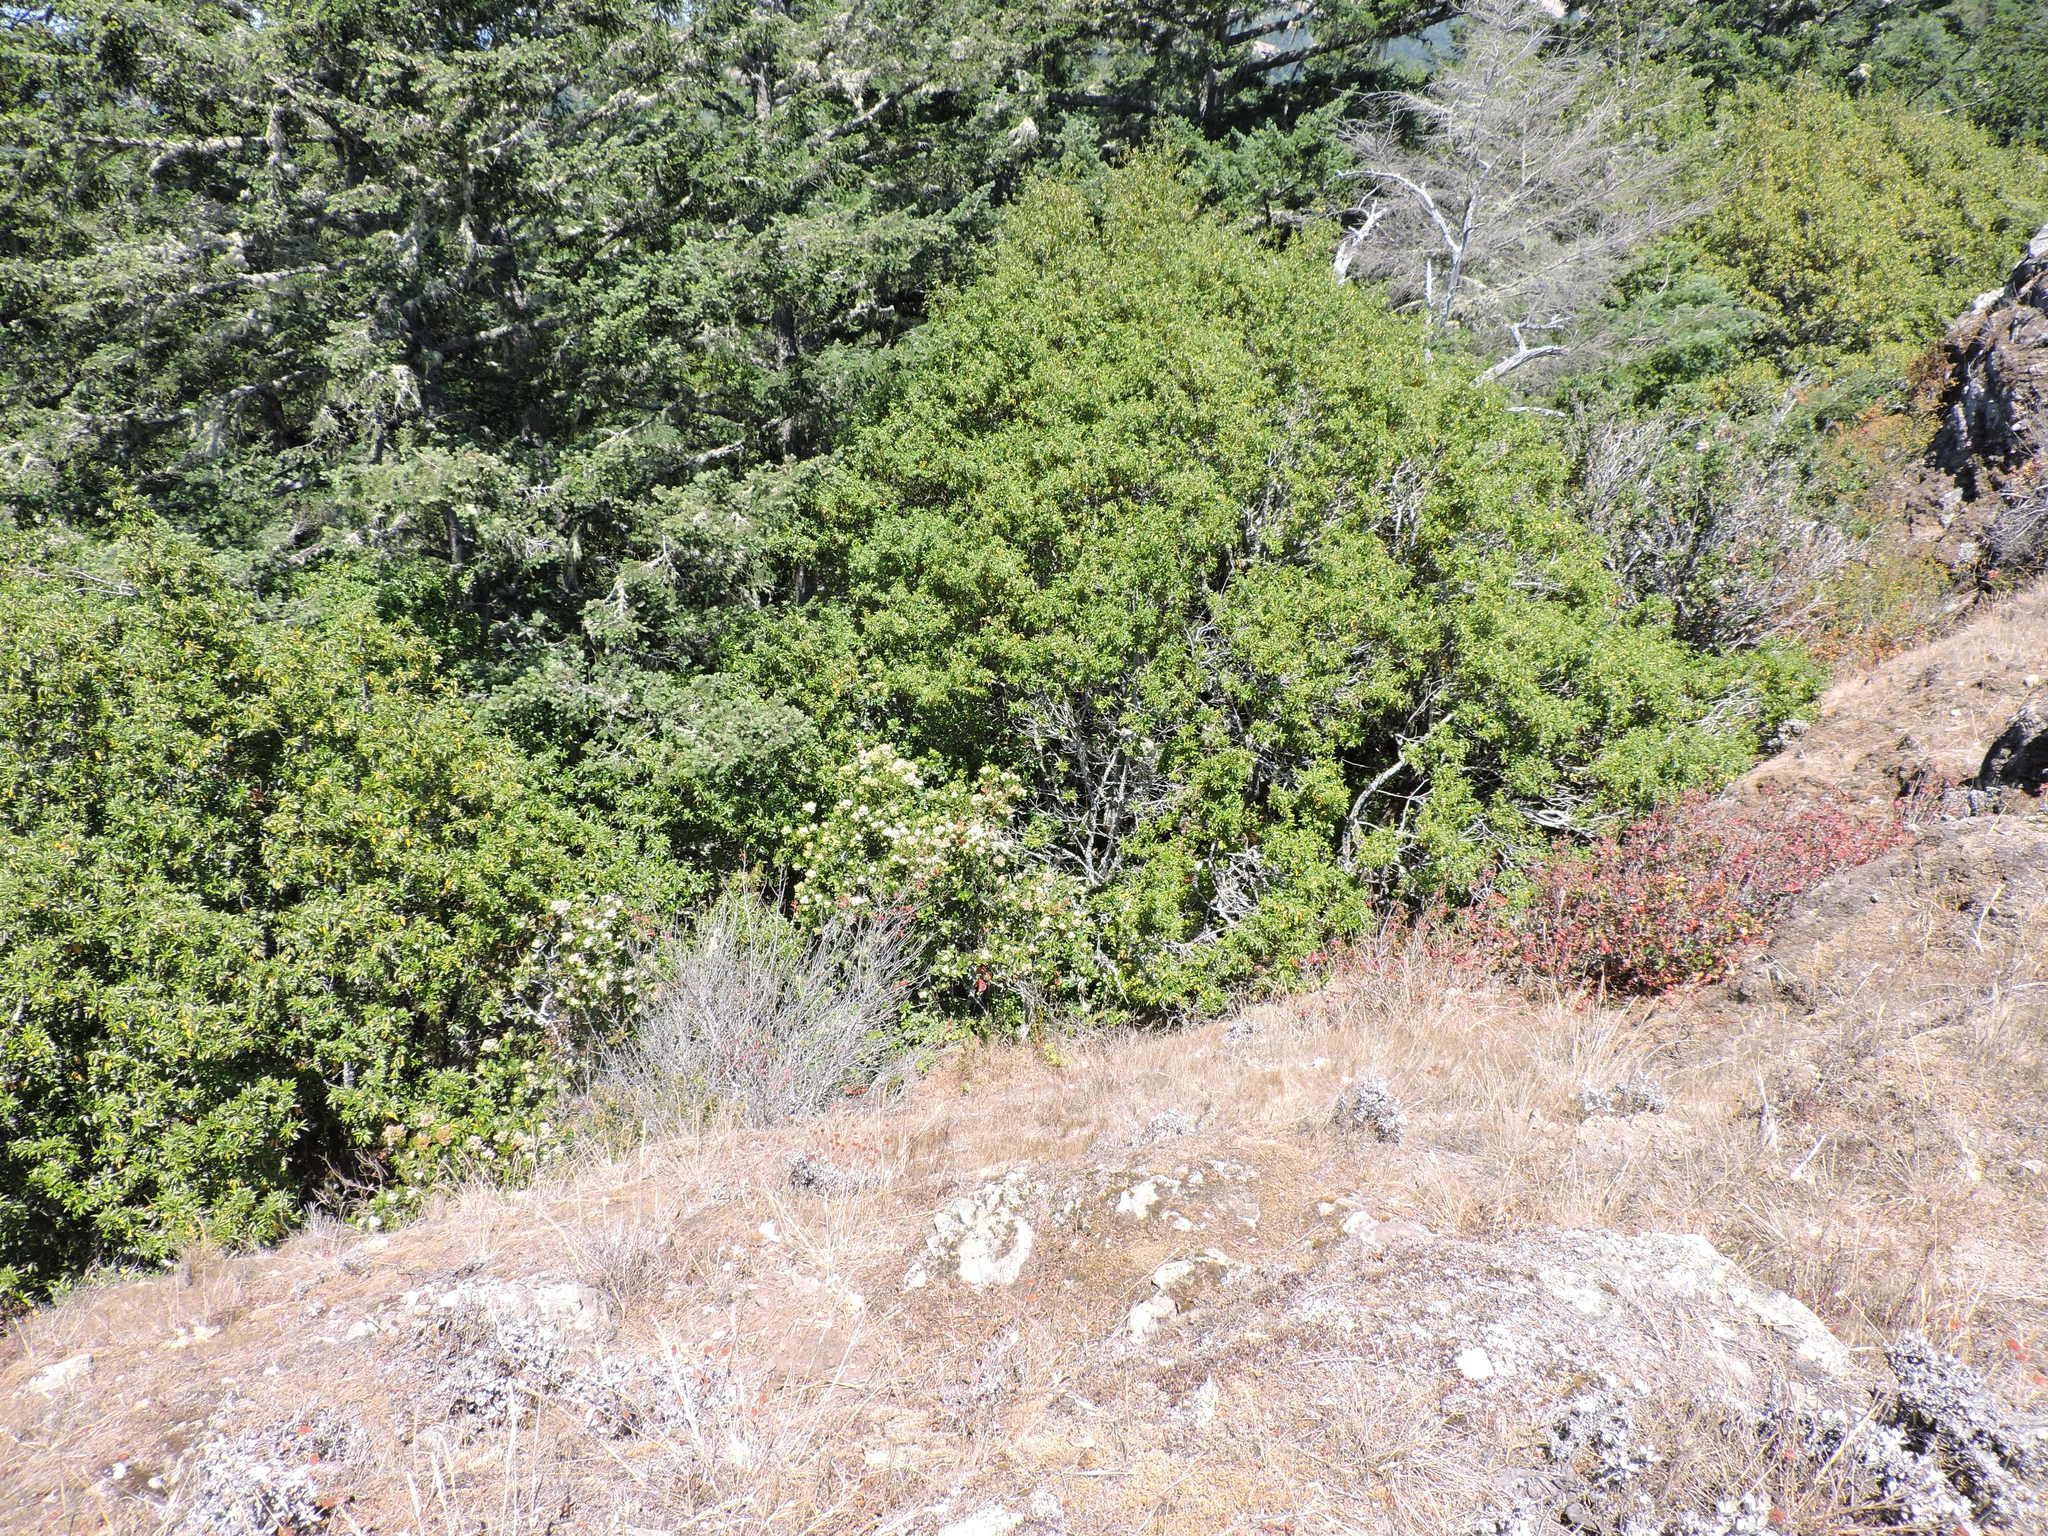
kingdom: Plantae
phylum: Tracheophyta
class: Magnoliopsida
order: Rosales
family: Rosaceae
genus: Heteromeles
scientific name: Heteromeles arbutifolia
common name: California-holly
